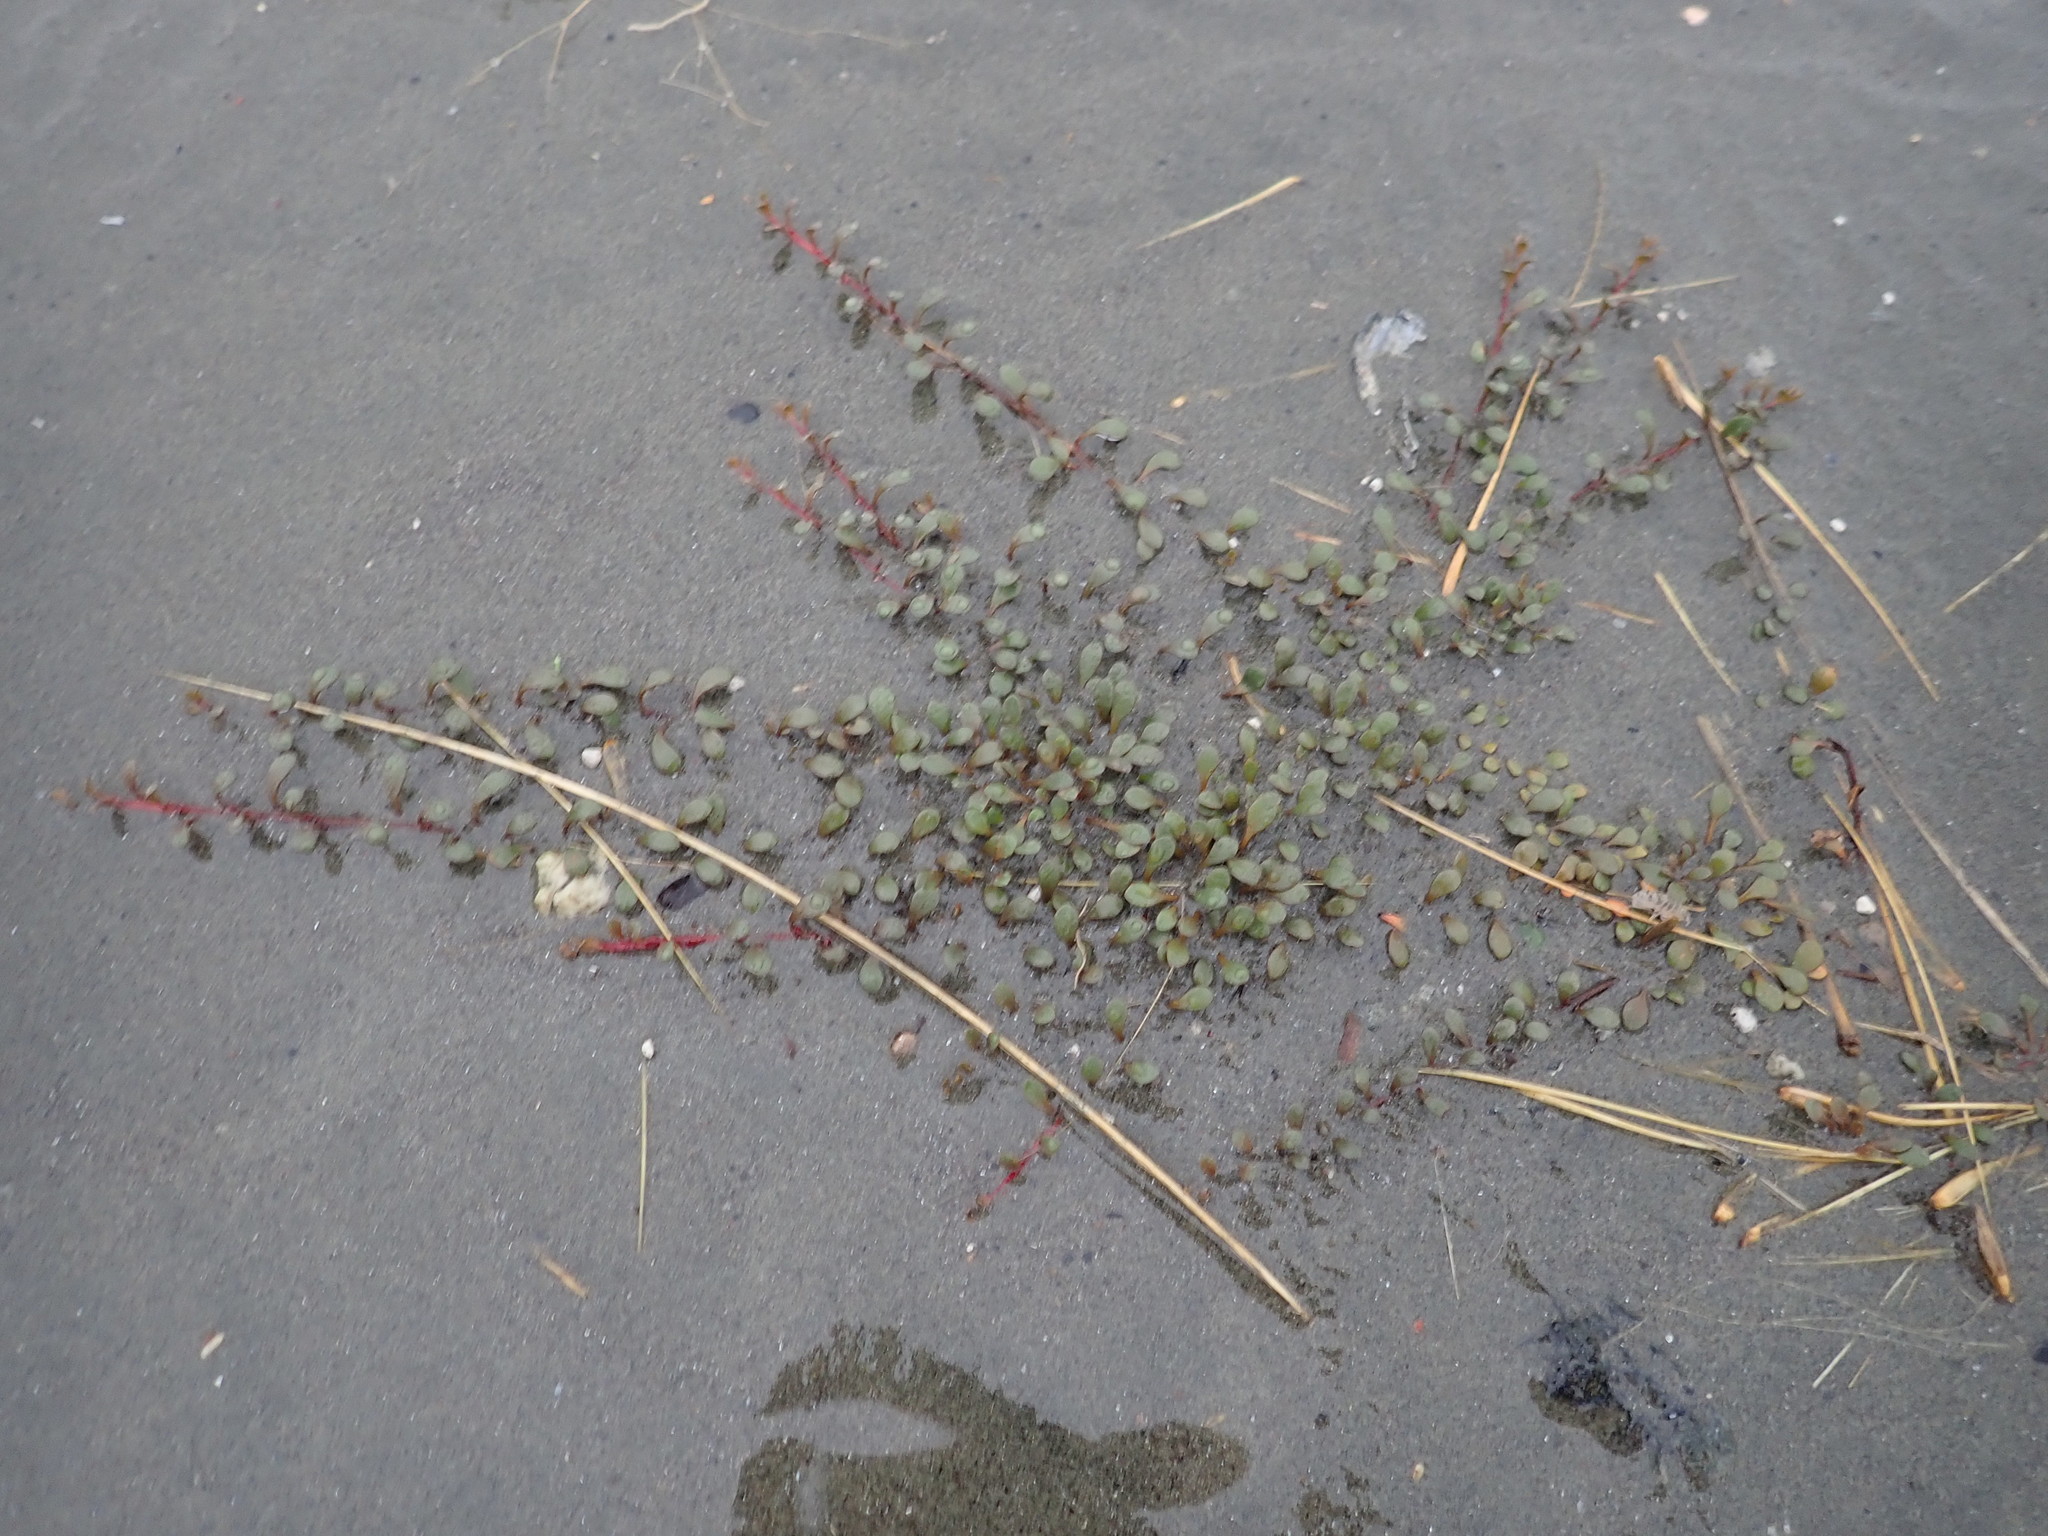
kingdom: Plantae
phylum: Tracheophyta
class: Magnoliopsida
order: Ericales
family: Primulaceae
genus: Samolus
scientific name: Samolus repens
